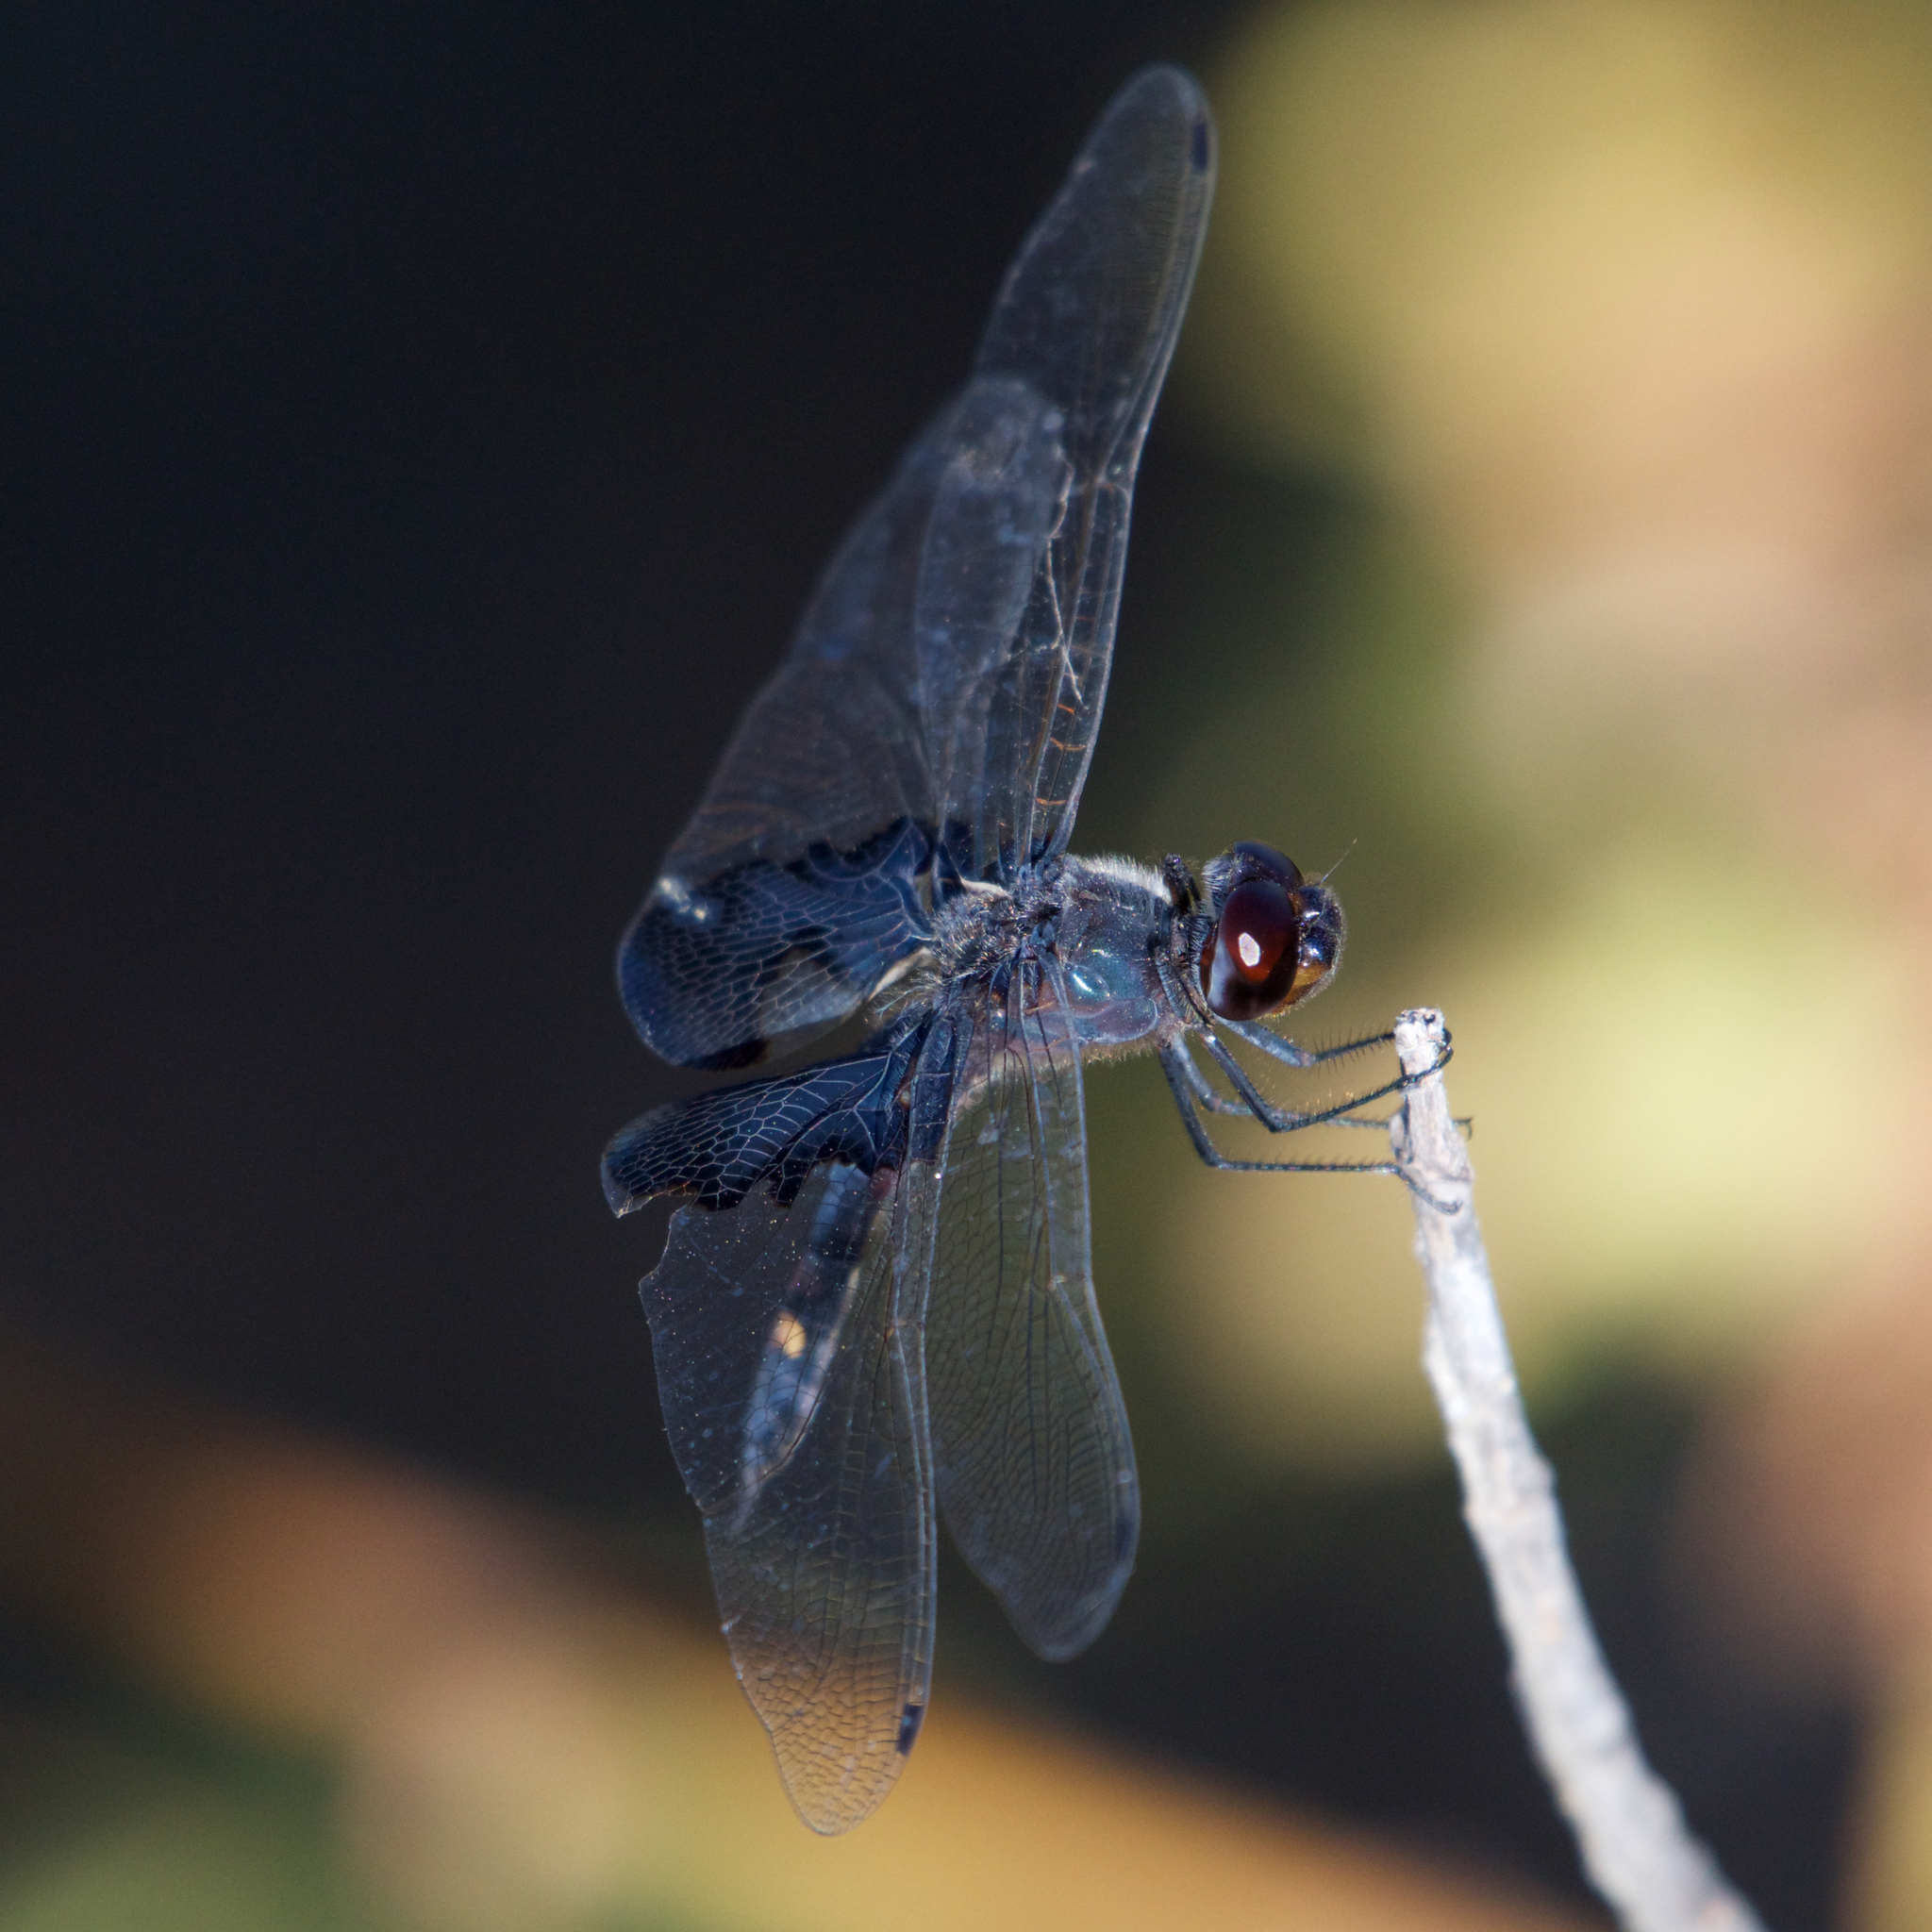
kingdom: Animalia
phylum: Arthropoda
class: Insecta
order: Odonata
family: Libellulidae
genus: Tramea
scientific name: Tramea lacerata
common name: Black saddlebags
